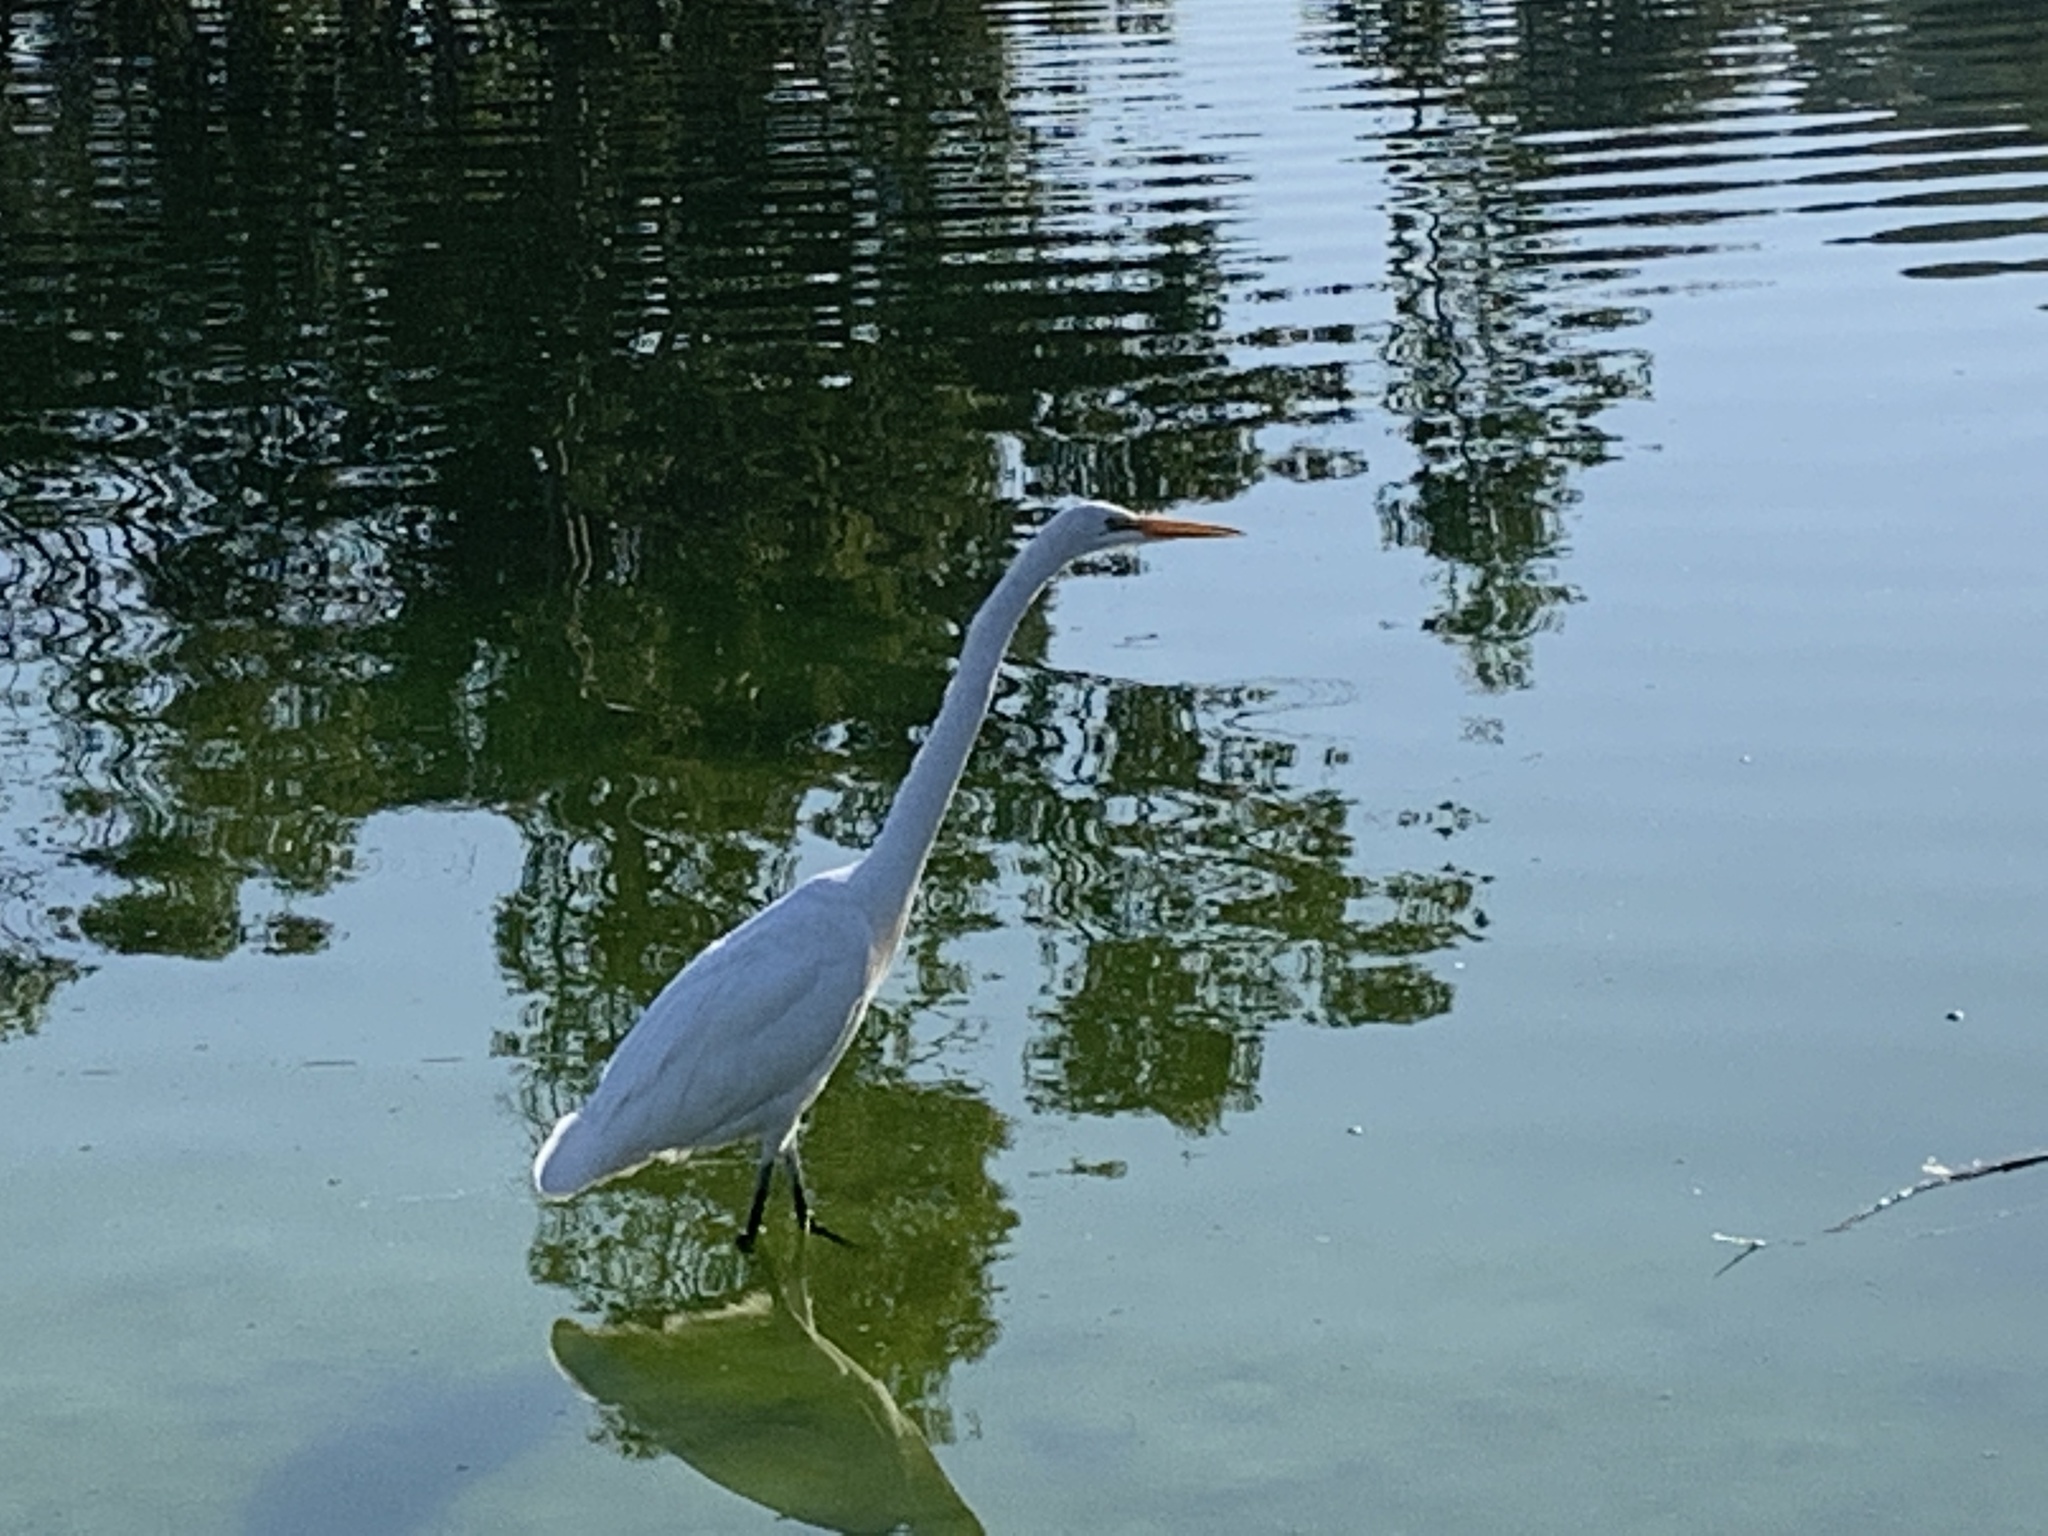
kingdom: Animalia
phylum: Chordata
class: Aves
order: Pelecaniformes
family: Ardeidae
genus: Ardea
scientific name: Ardea alba
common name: Great egret
